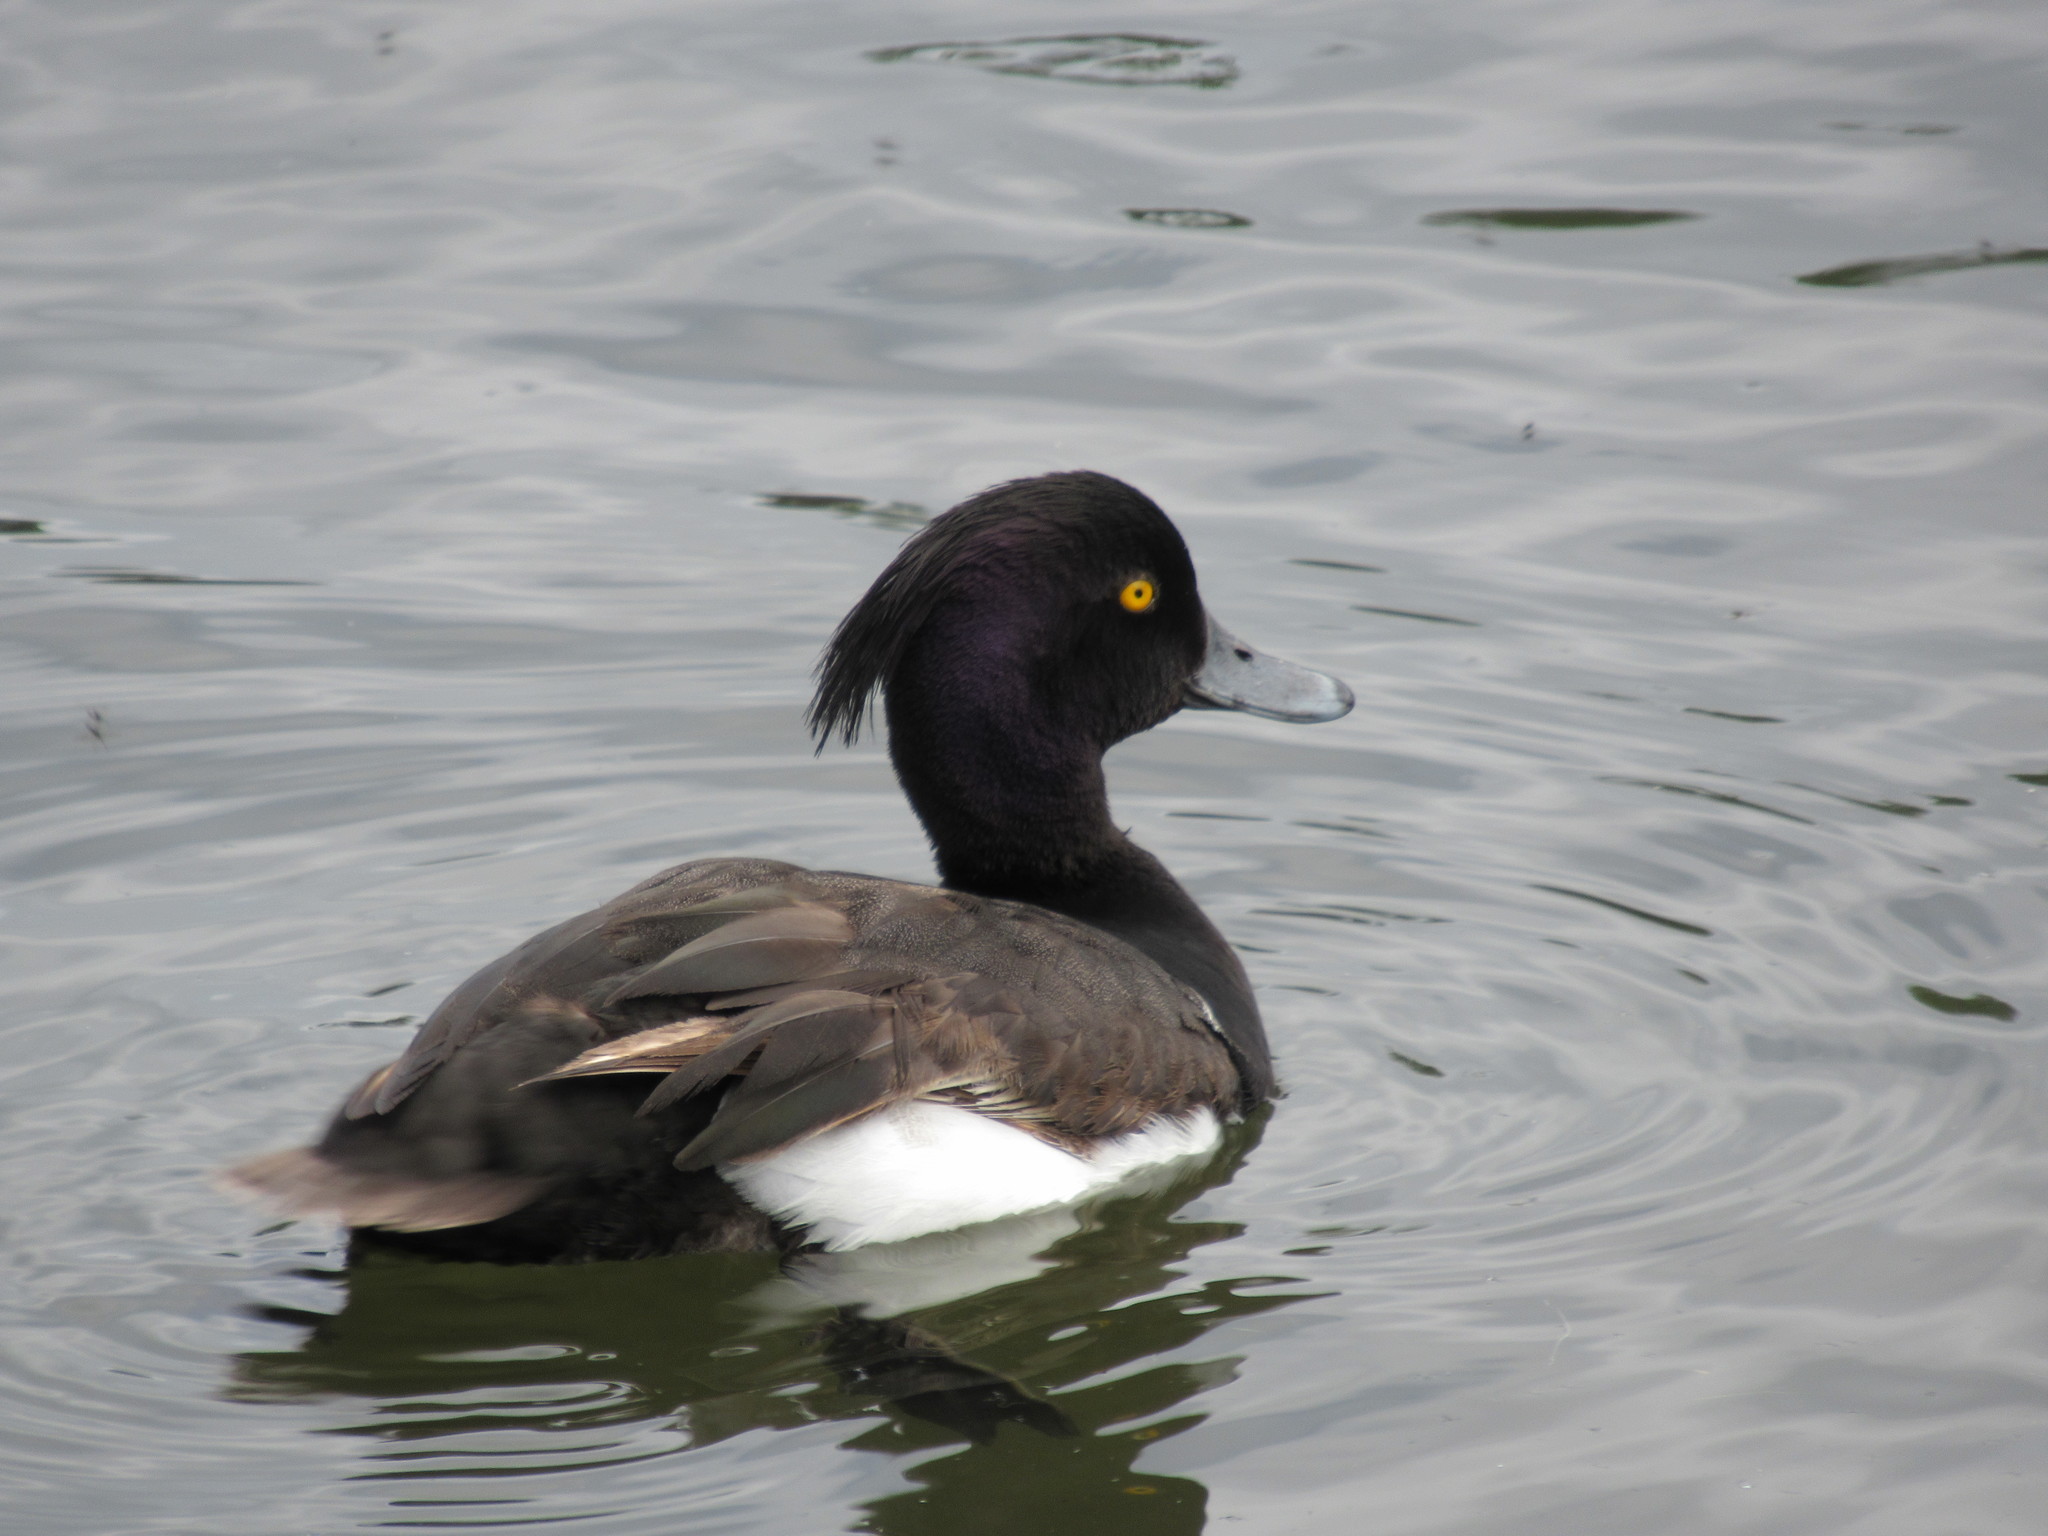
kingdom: Animalia
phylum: Chordata
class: Aves
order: Anseriformes
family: Anatidae
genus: Aythya
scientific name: Aythya fuligula
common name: Tufted duck
